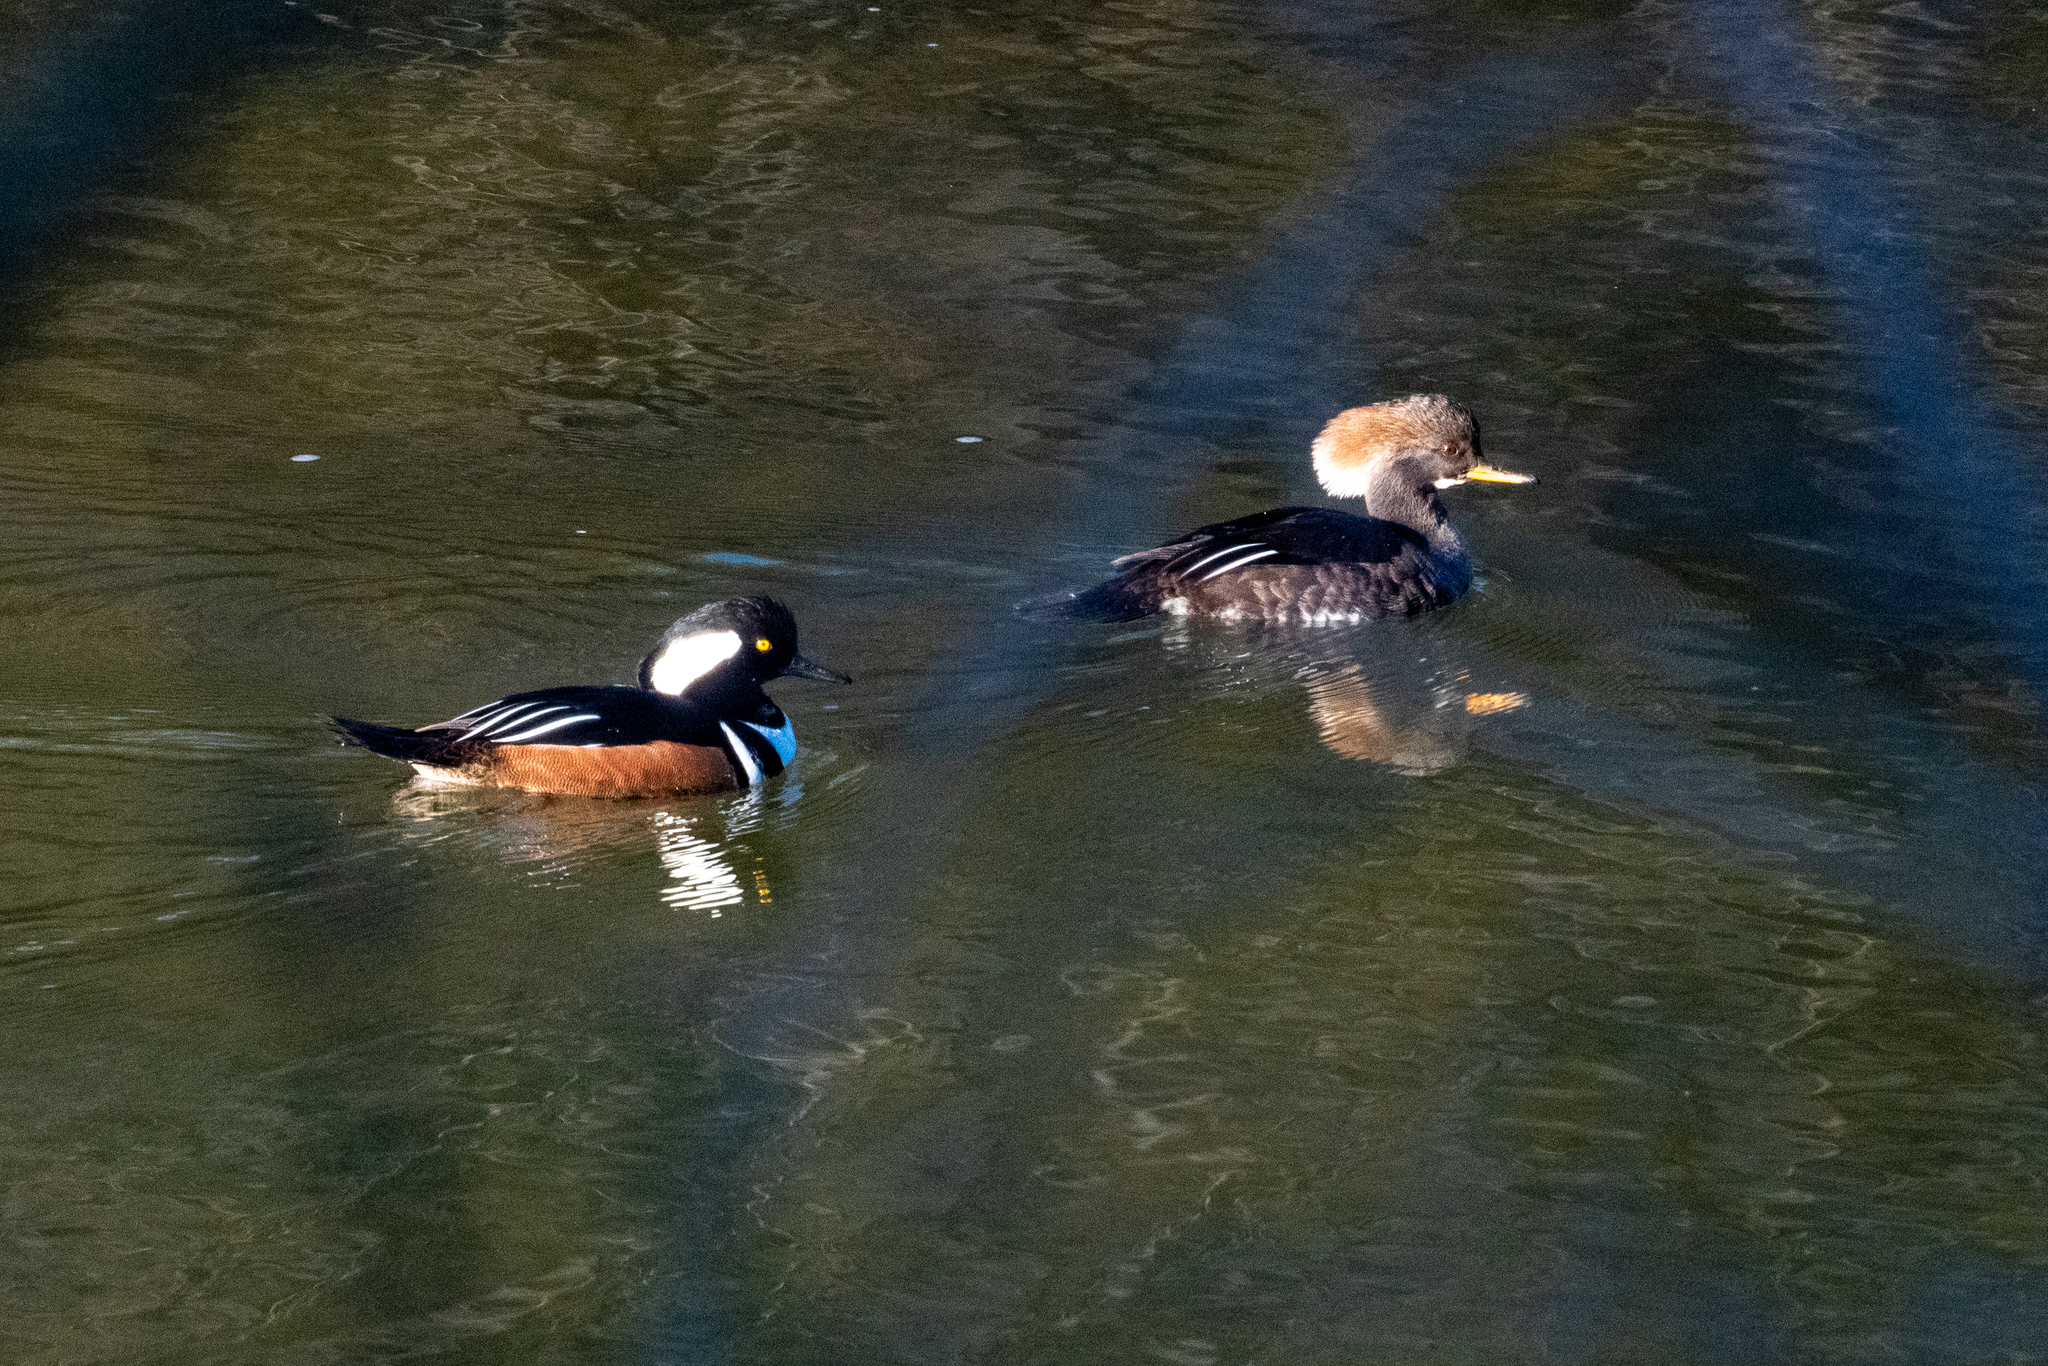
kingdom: Animalia
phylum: Chordata
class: Aves
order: Anseriformes
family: Anatidae
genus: Lophodytes
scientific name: Lophodytes cucullatus
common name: Hooded merganser
